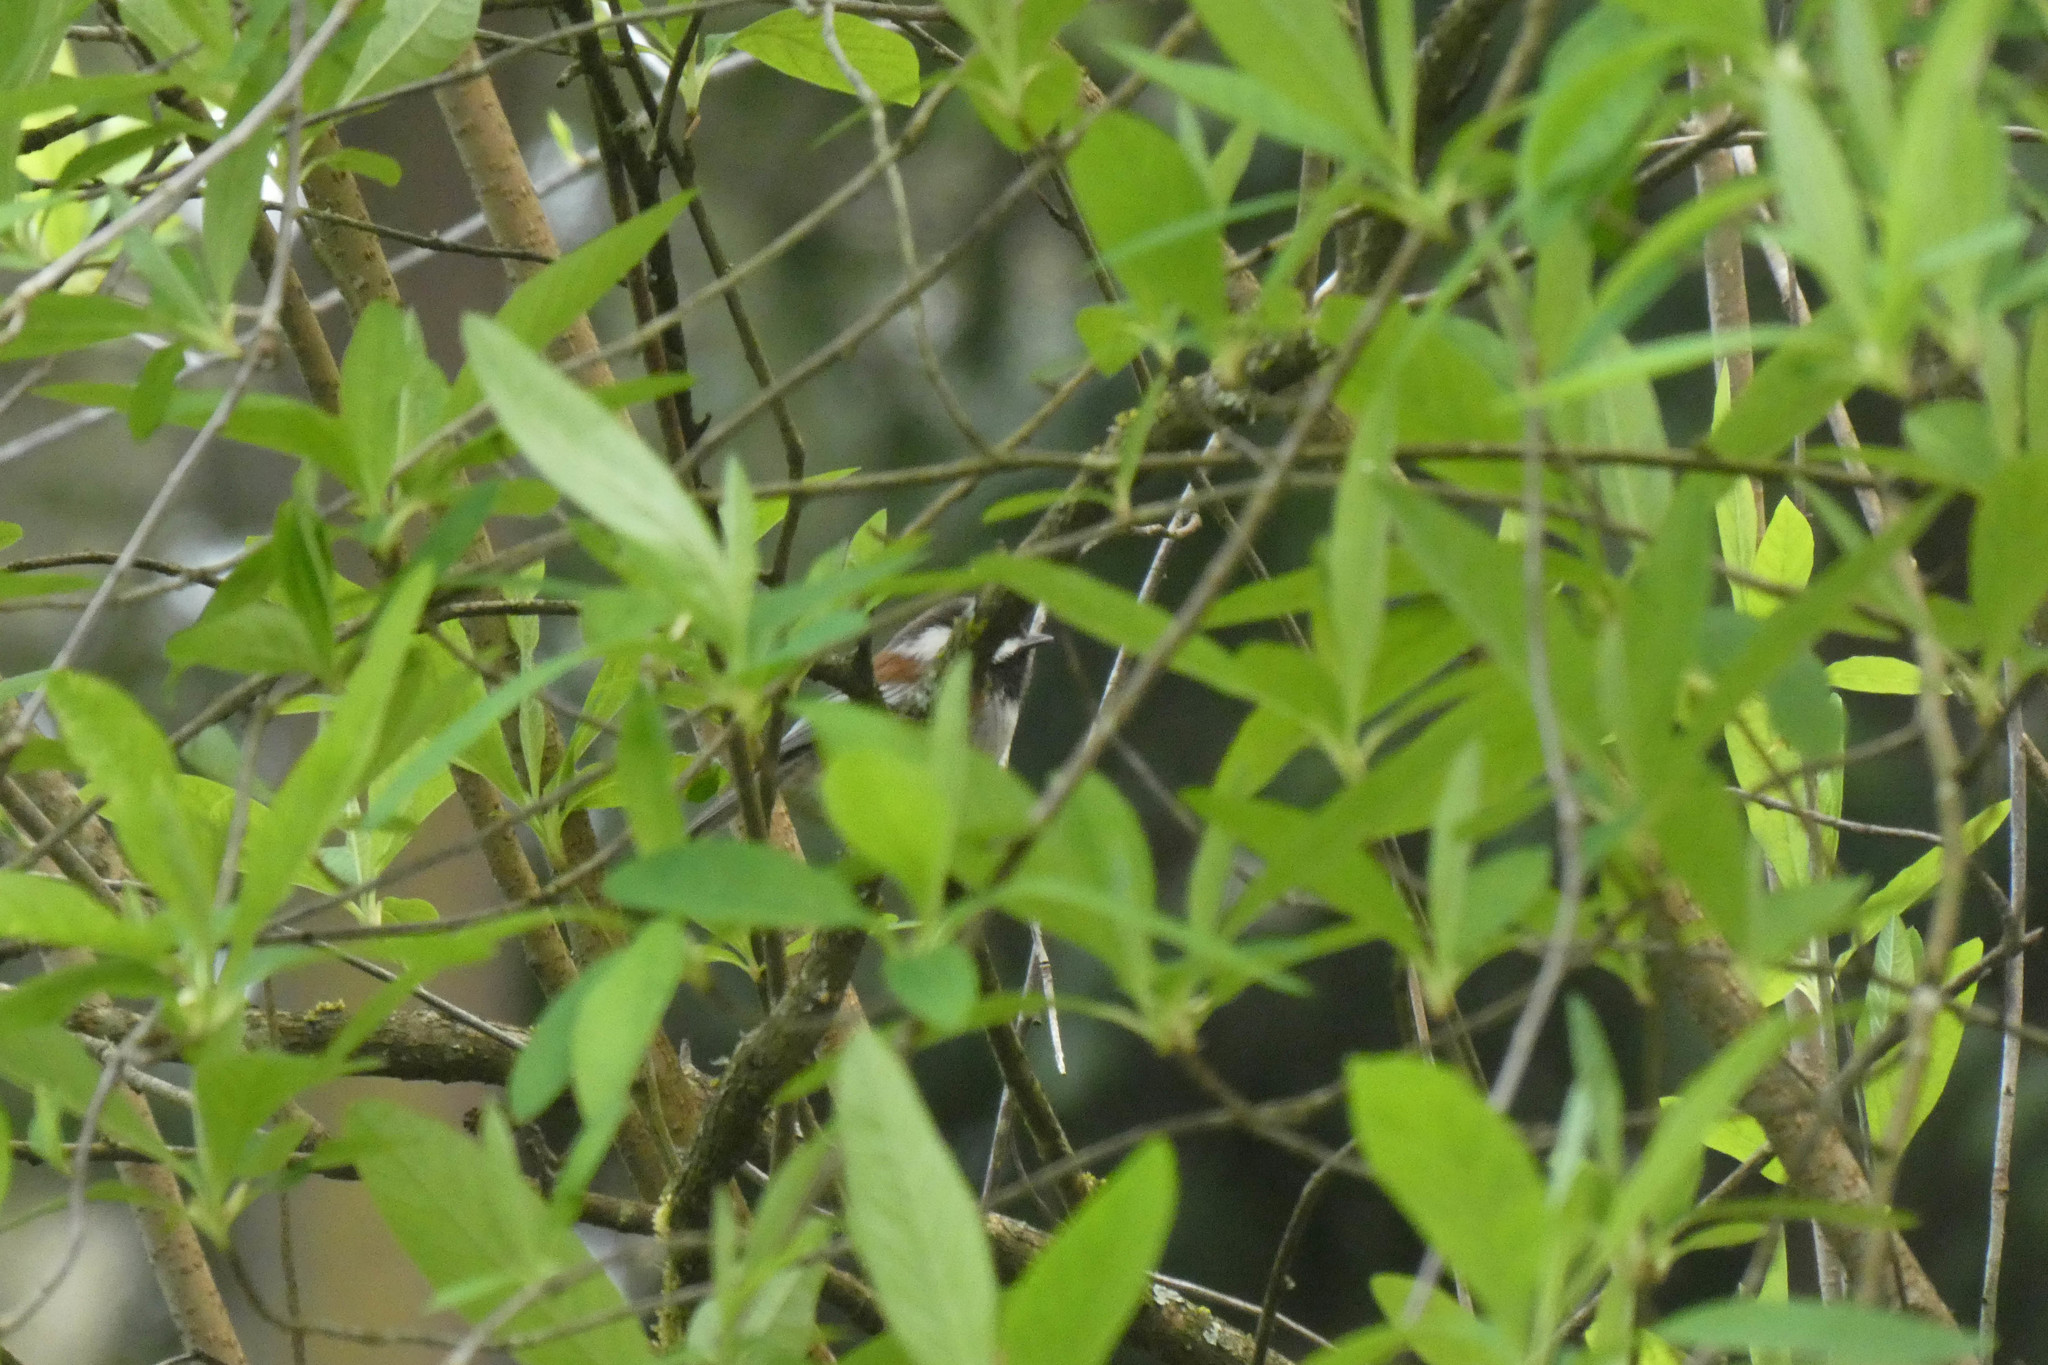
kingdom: Animalia
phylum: Chordata
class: Aves
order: Passeriformes
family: Paridae
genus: Poecile
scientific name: Poecile rufescens
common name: Chestnut-backed chickadee
